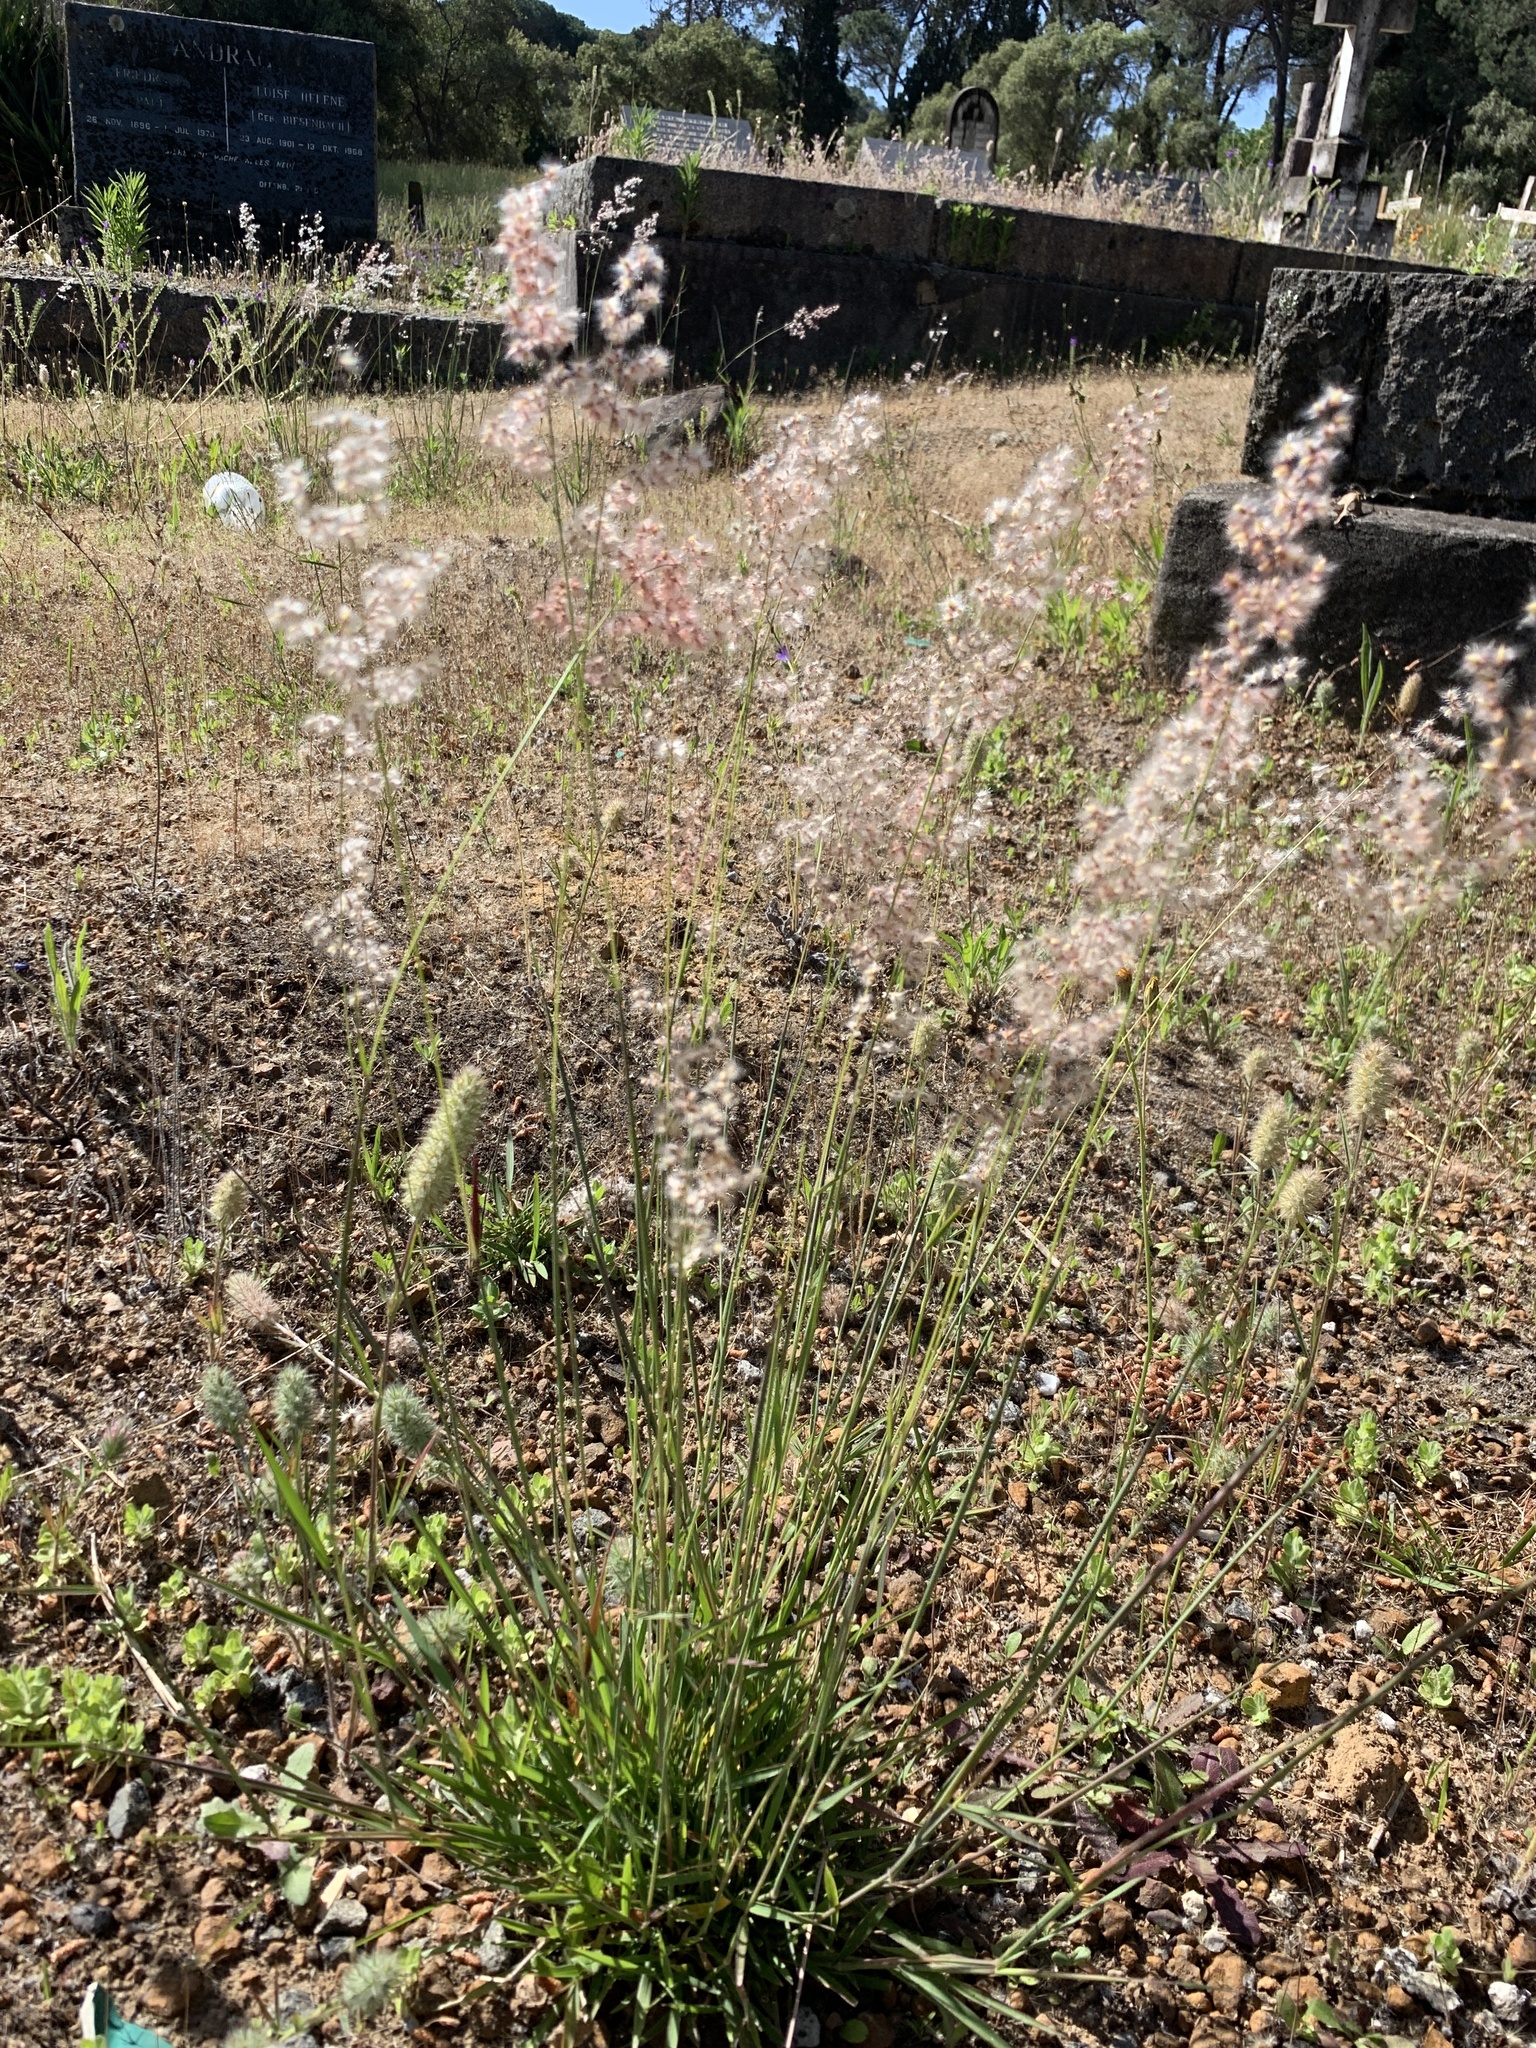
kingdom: Plantae
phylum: Tracheophyta
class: Liliopsida
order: Poales
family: Poaceae
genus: Melinis
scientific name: Melinis repens
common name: Rose natal grass
